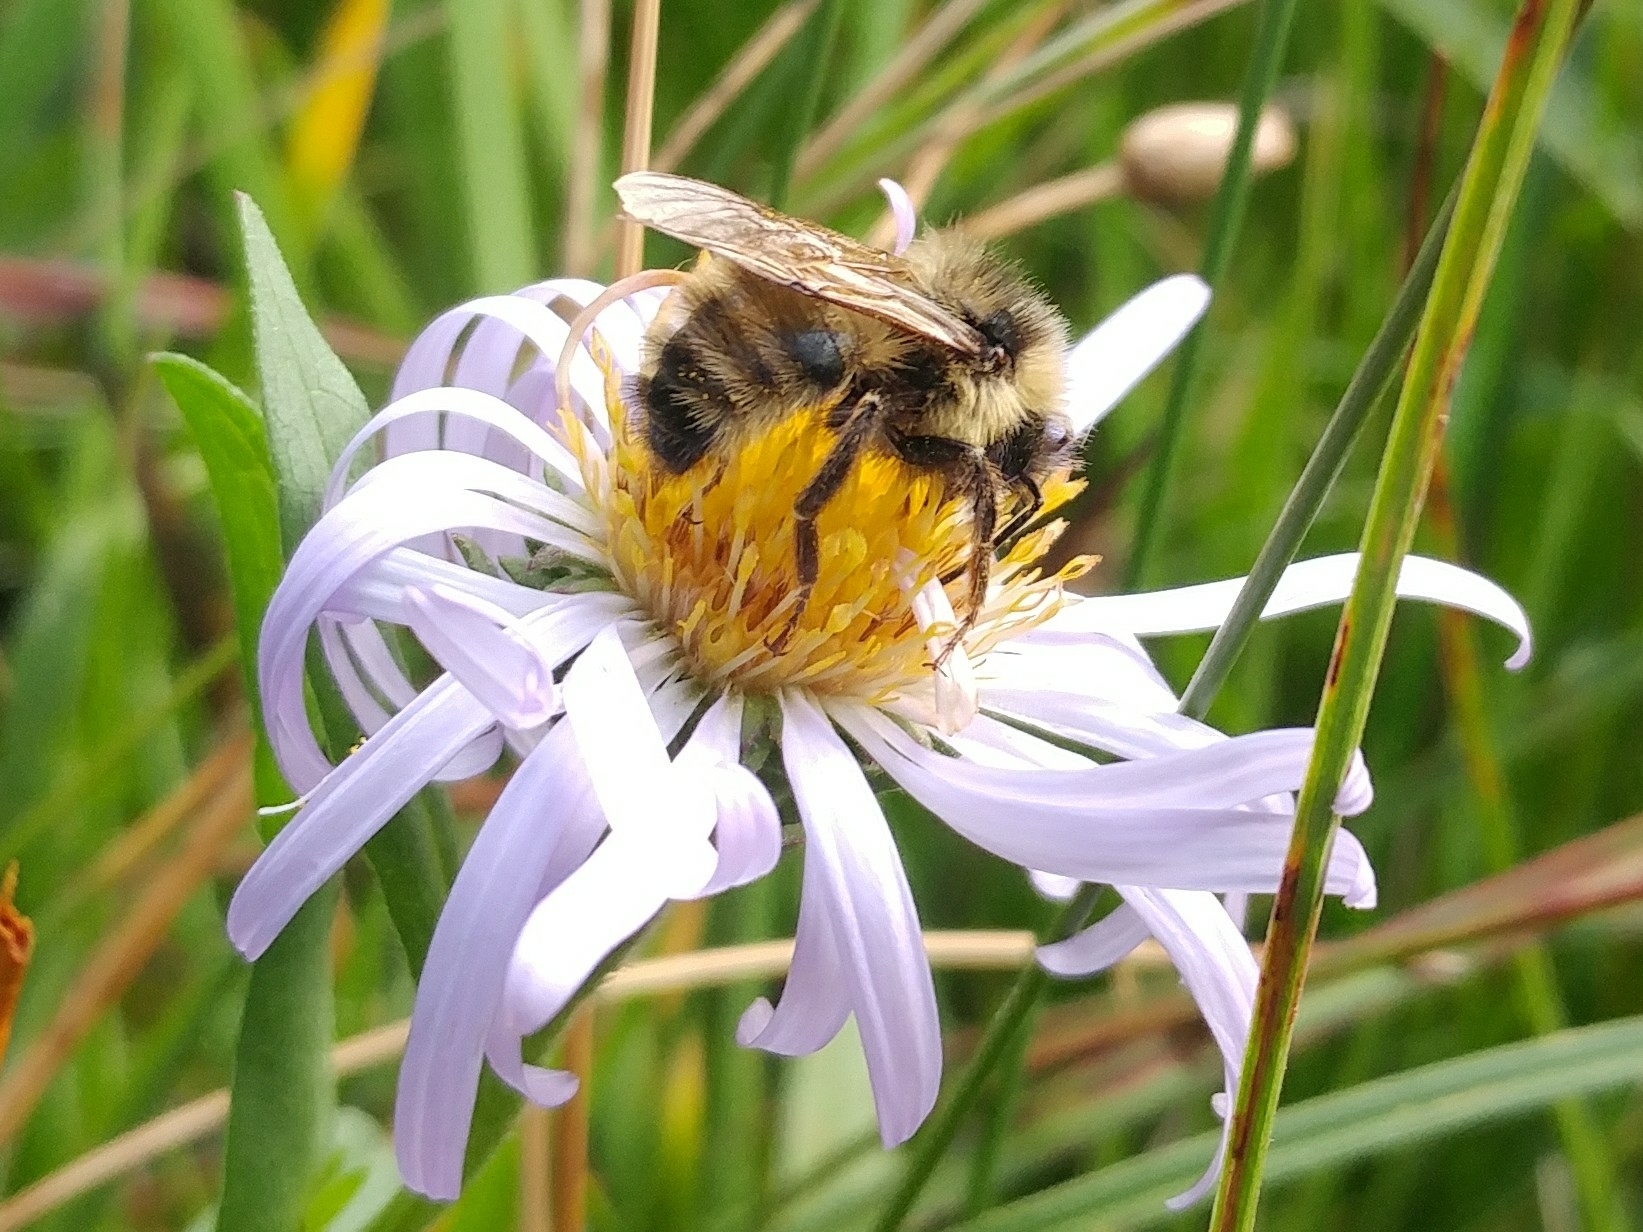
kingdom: Animalia
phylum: Arthropoda
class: Insecta
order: Hymenoptera
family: Apidae
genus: Bombus
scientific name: Bombus insularis
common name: Indiscriminate cuckoo bumble bee
